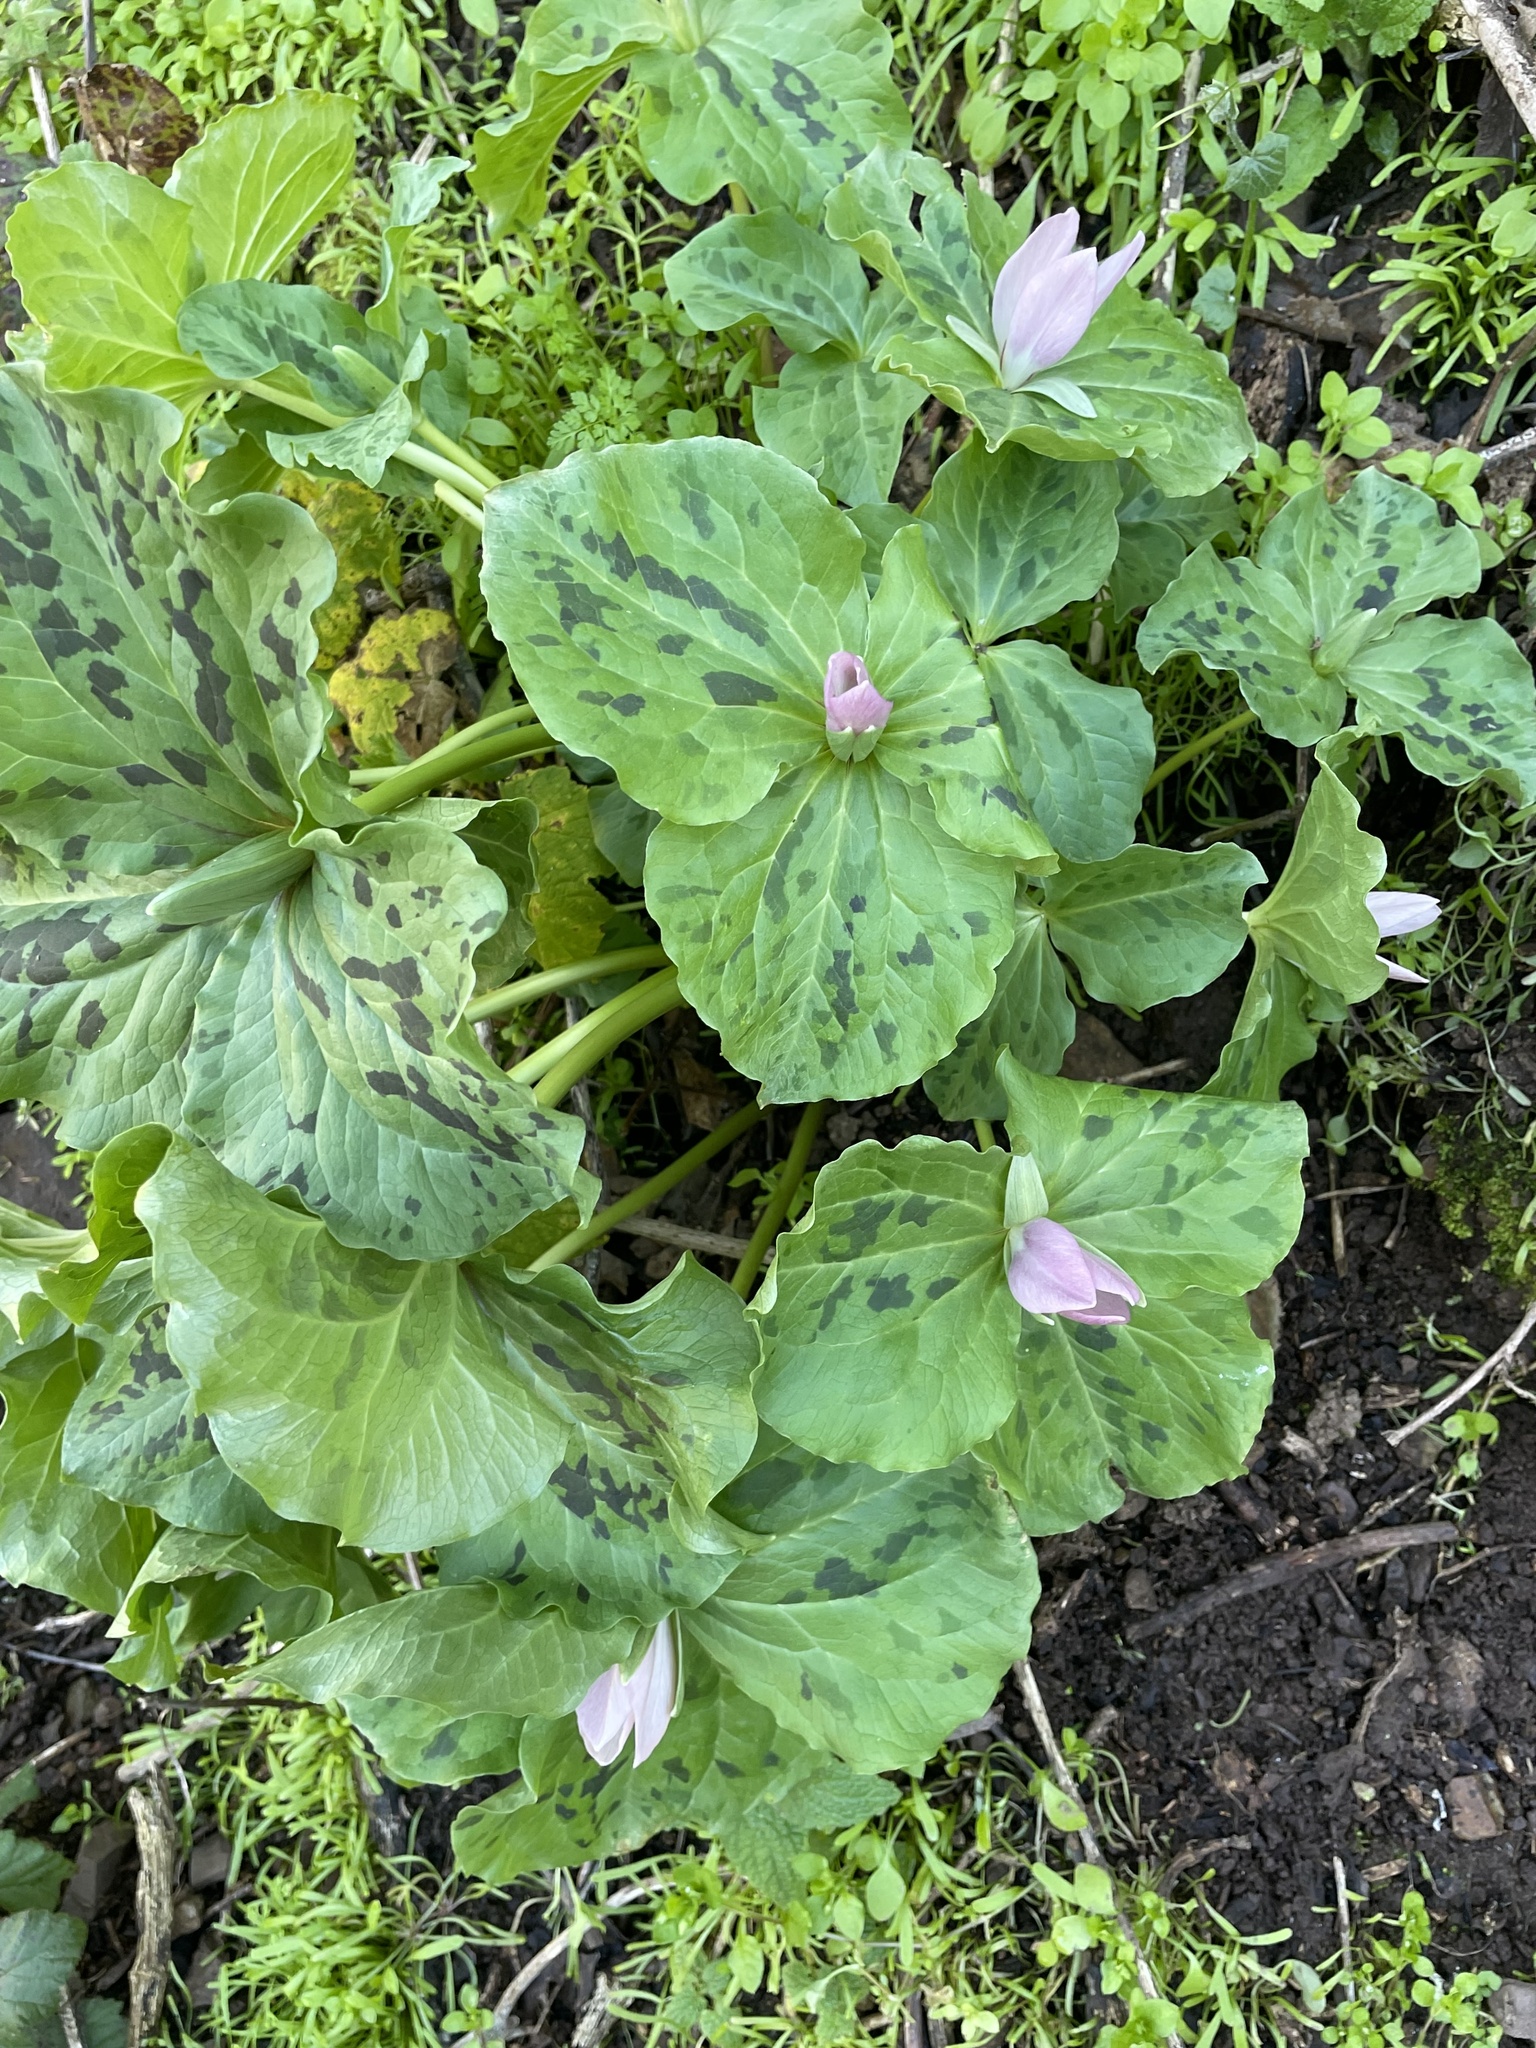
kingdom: Plantae
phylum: Tracheophyta
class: Liliopsida
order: Liliales
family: Melanthiaceae
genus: Trillium
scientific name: Trillium chloropetalum
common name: Giant trillium
